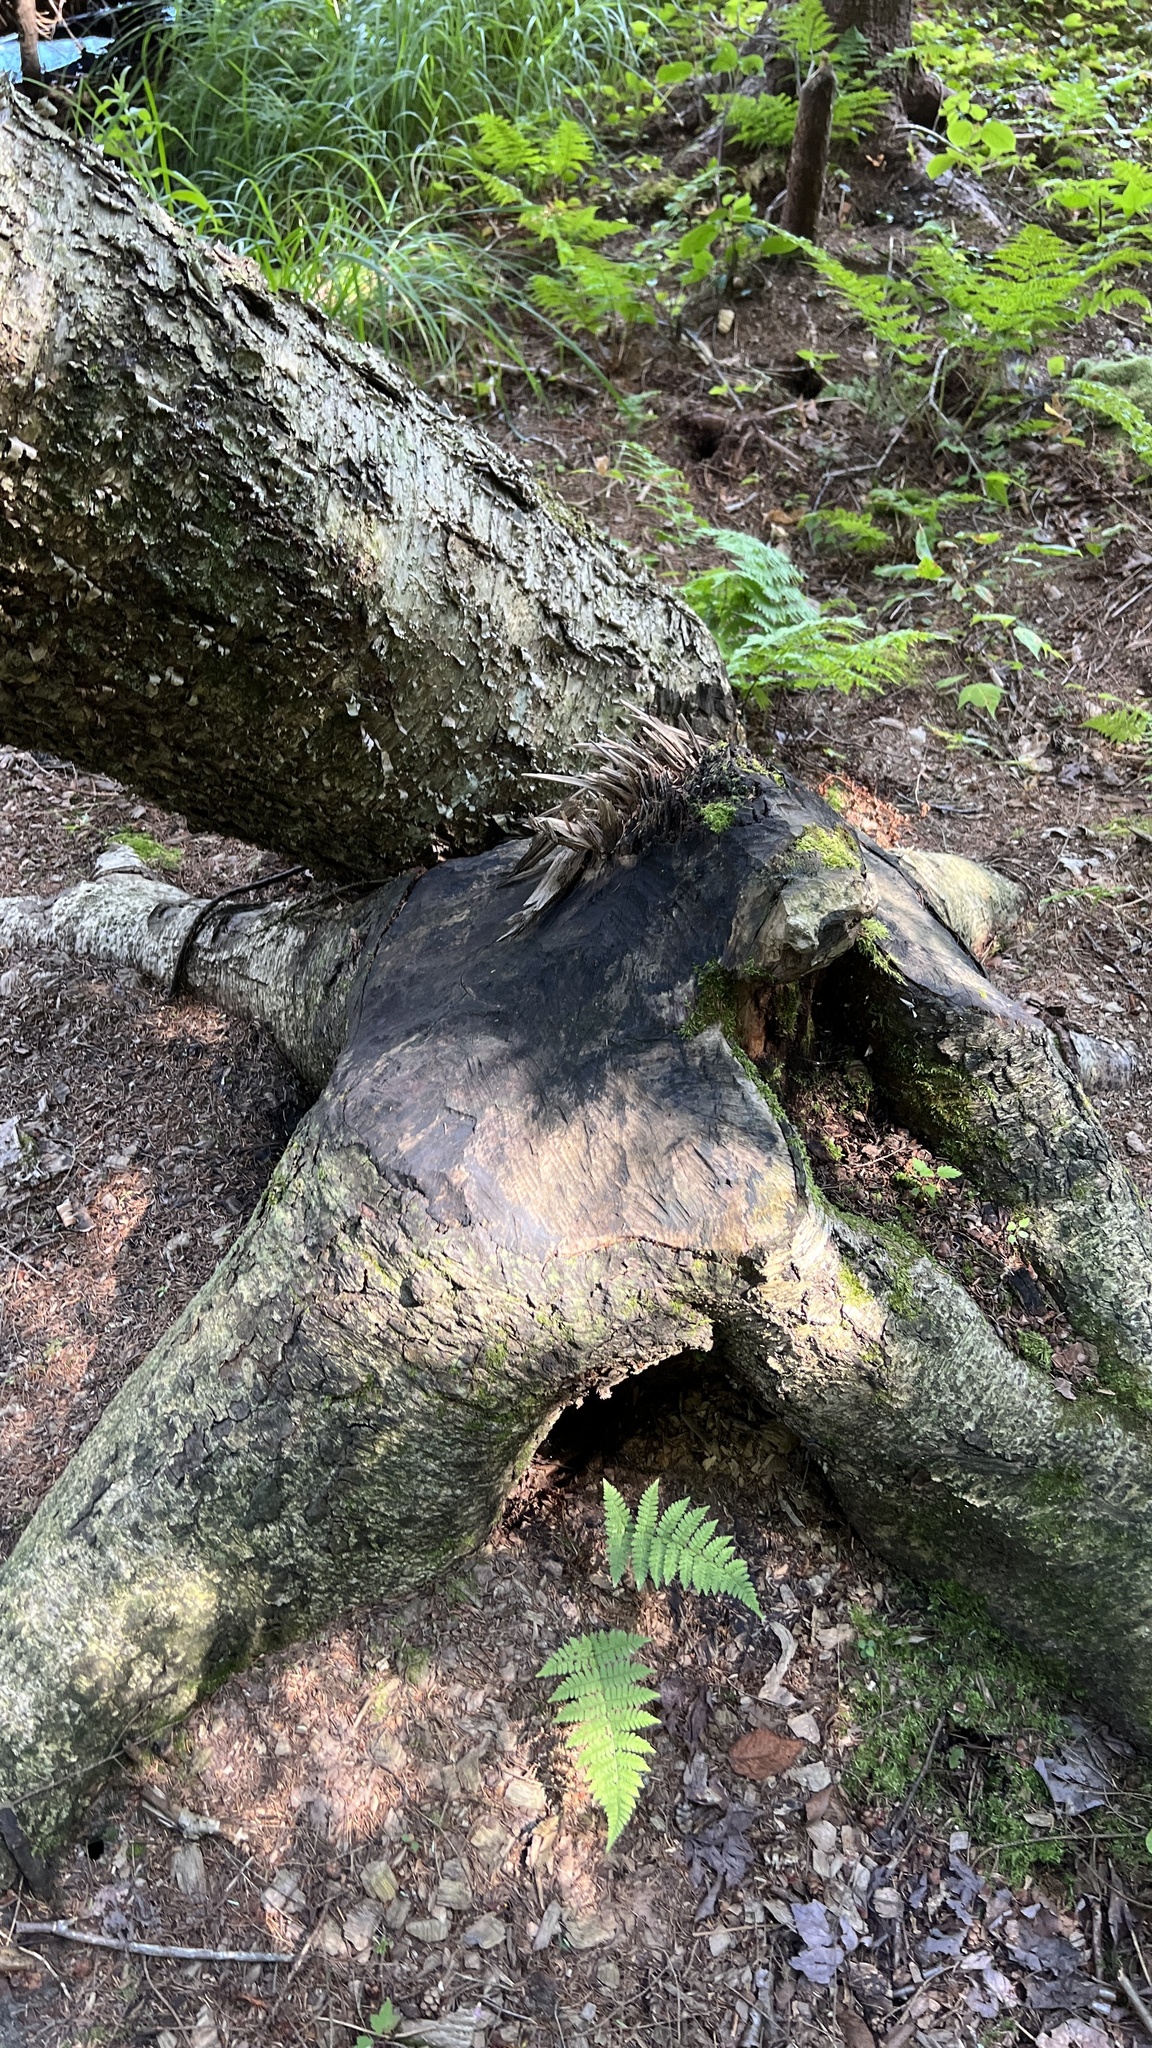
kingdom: Animalia
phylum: Chordata
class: Mammalia
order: Rodentia
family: Castoridae
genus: Castor
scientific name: Castor canadensis
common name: American beaver
